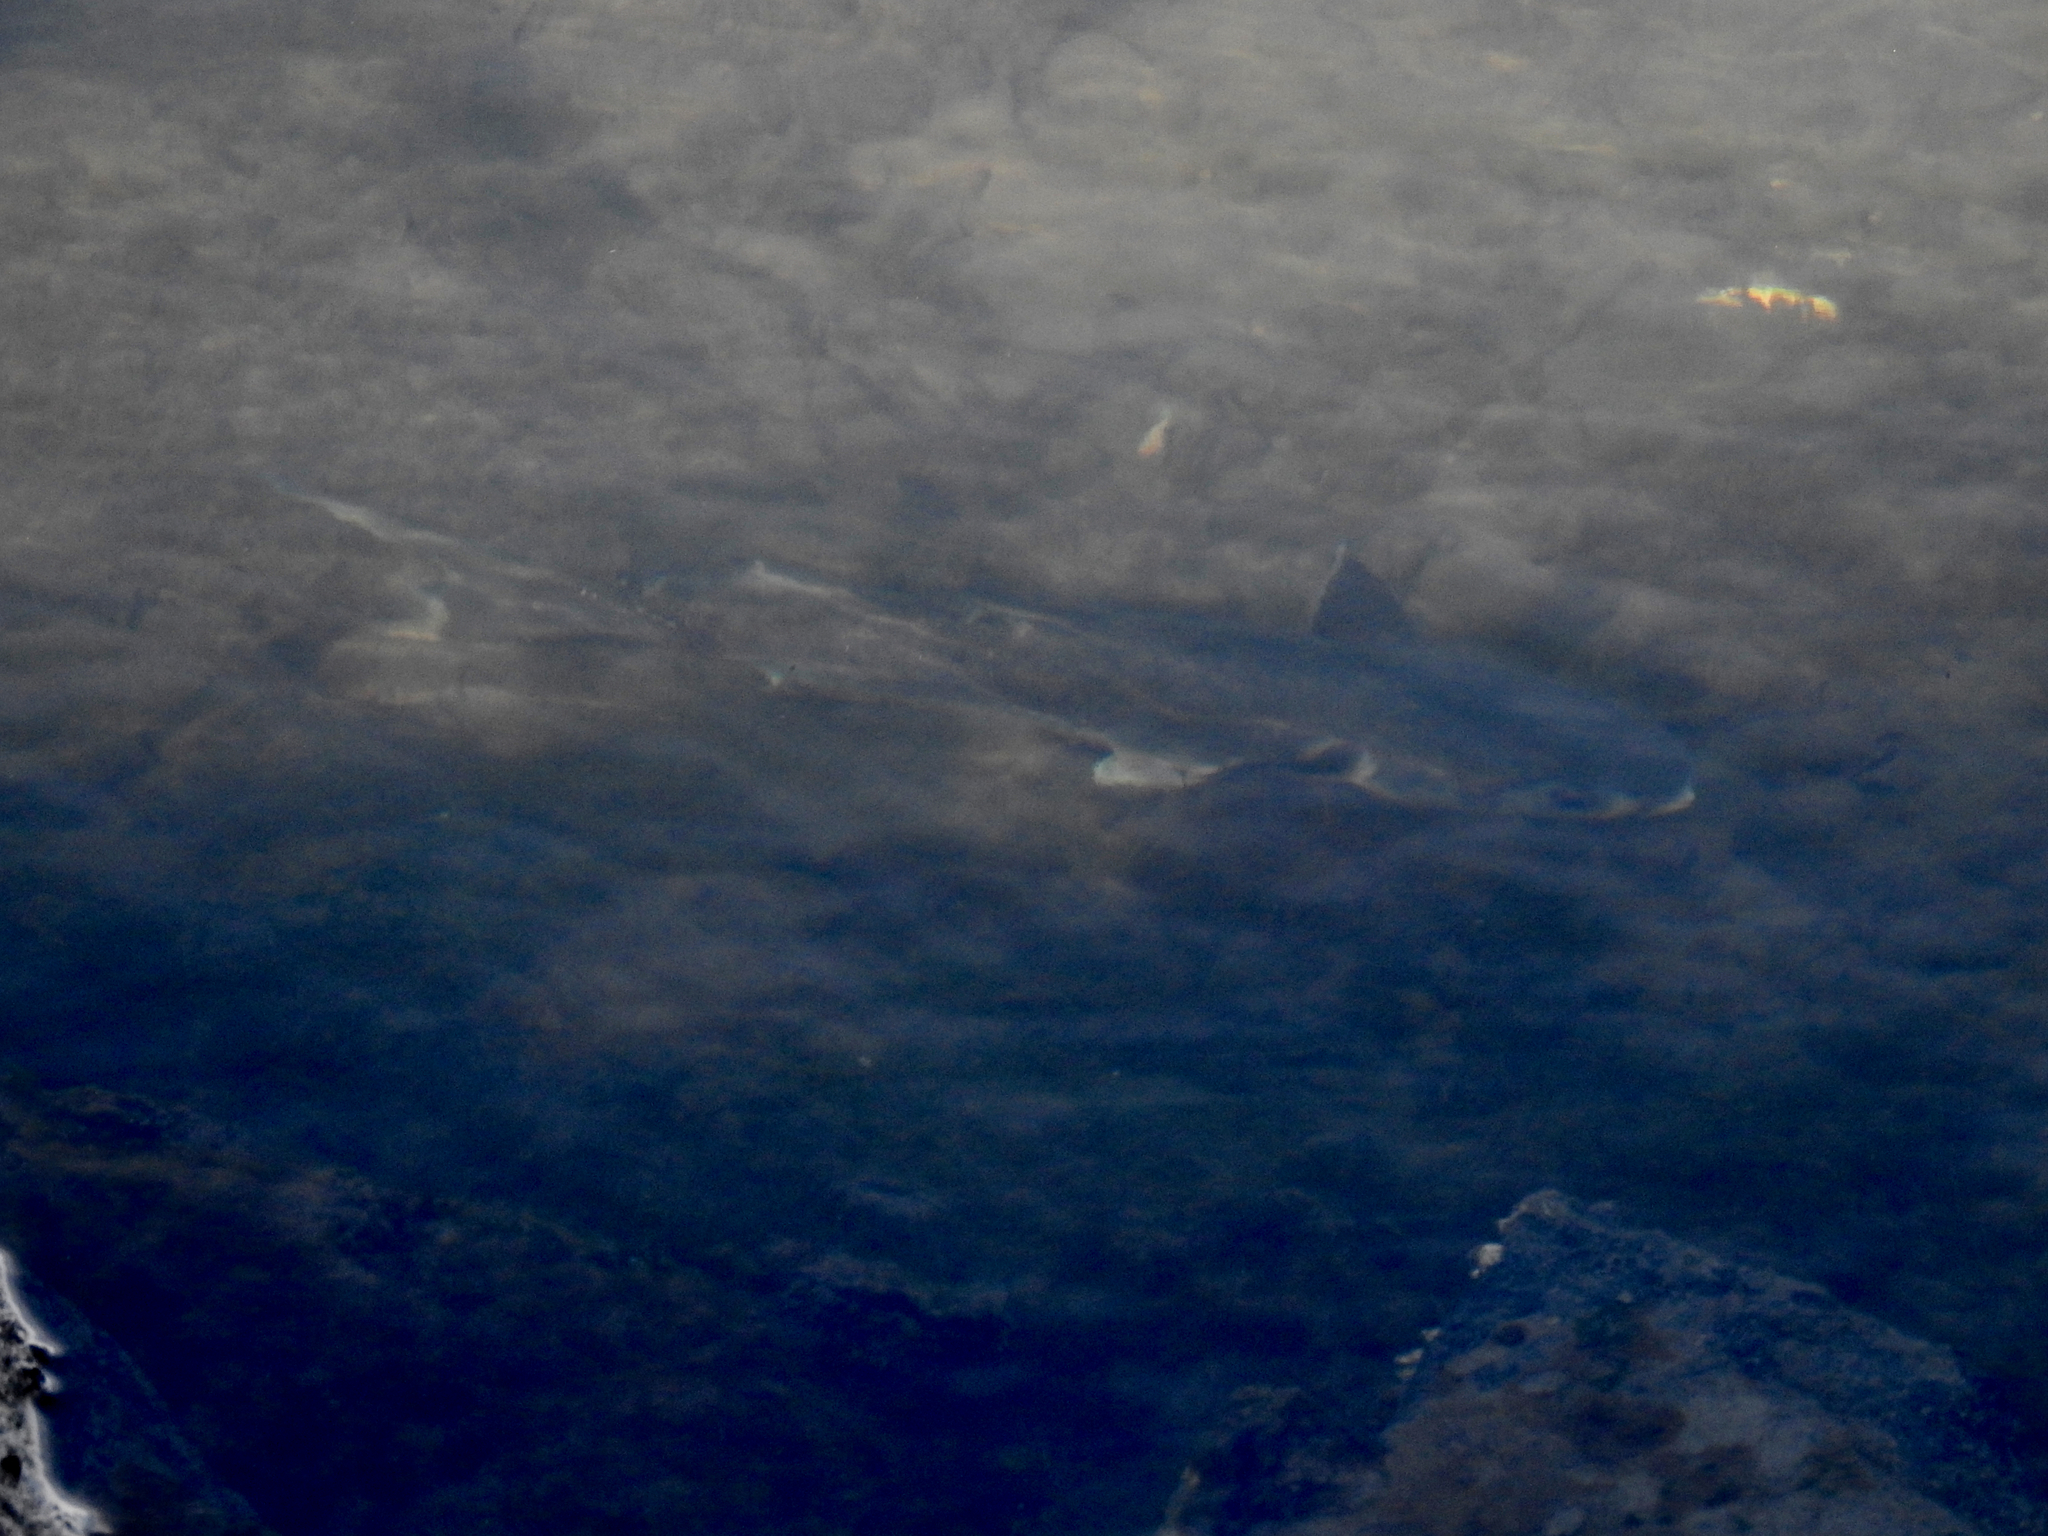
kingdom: Animalia
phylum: Chordata
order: Mugiliformes
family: Mugilidae
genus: Mugil
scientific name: Mugil cephalus
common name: Grey mullet
